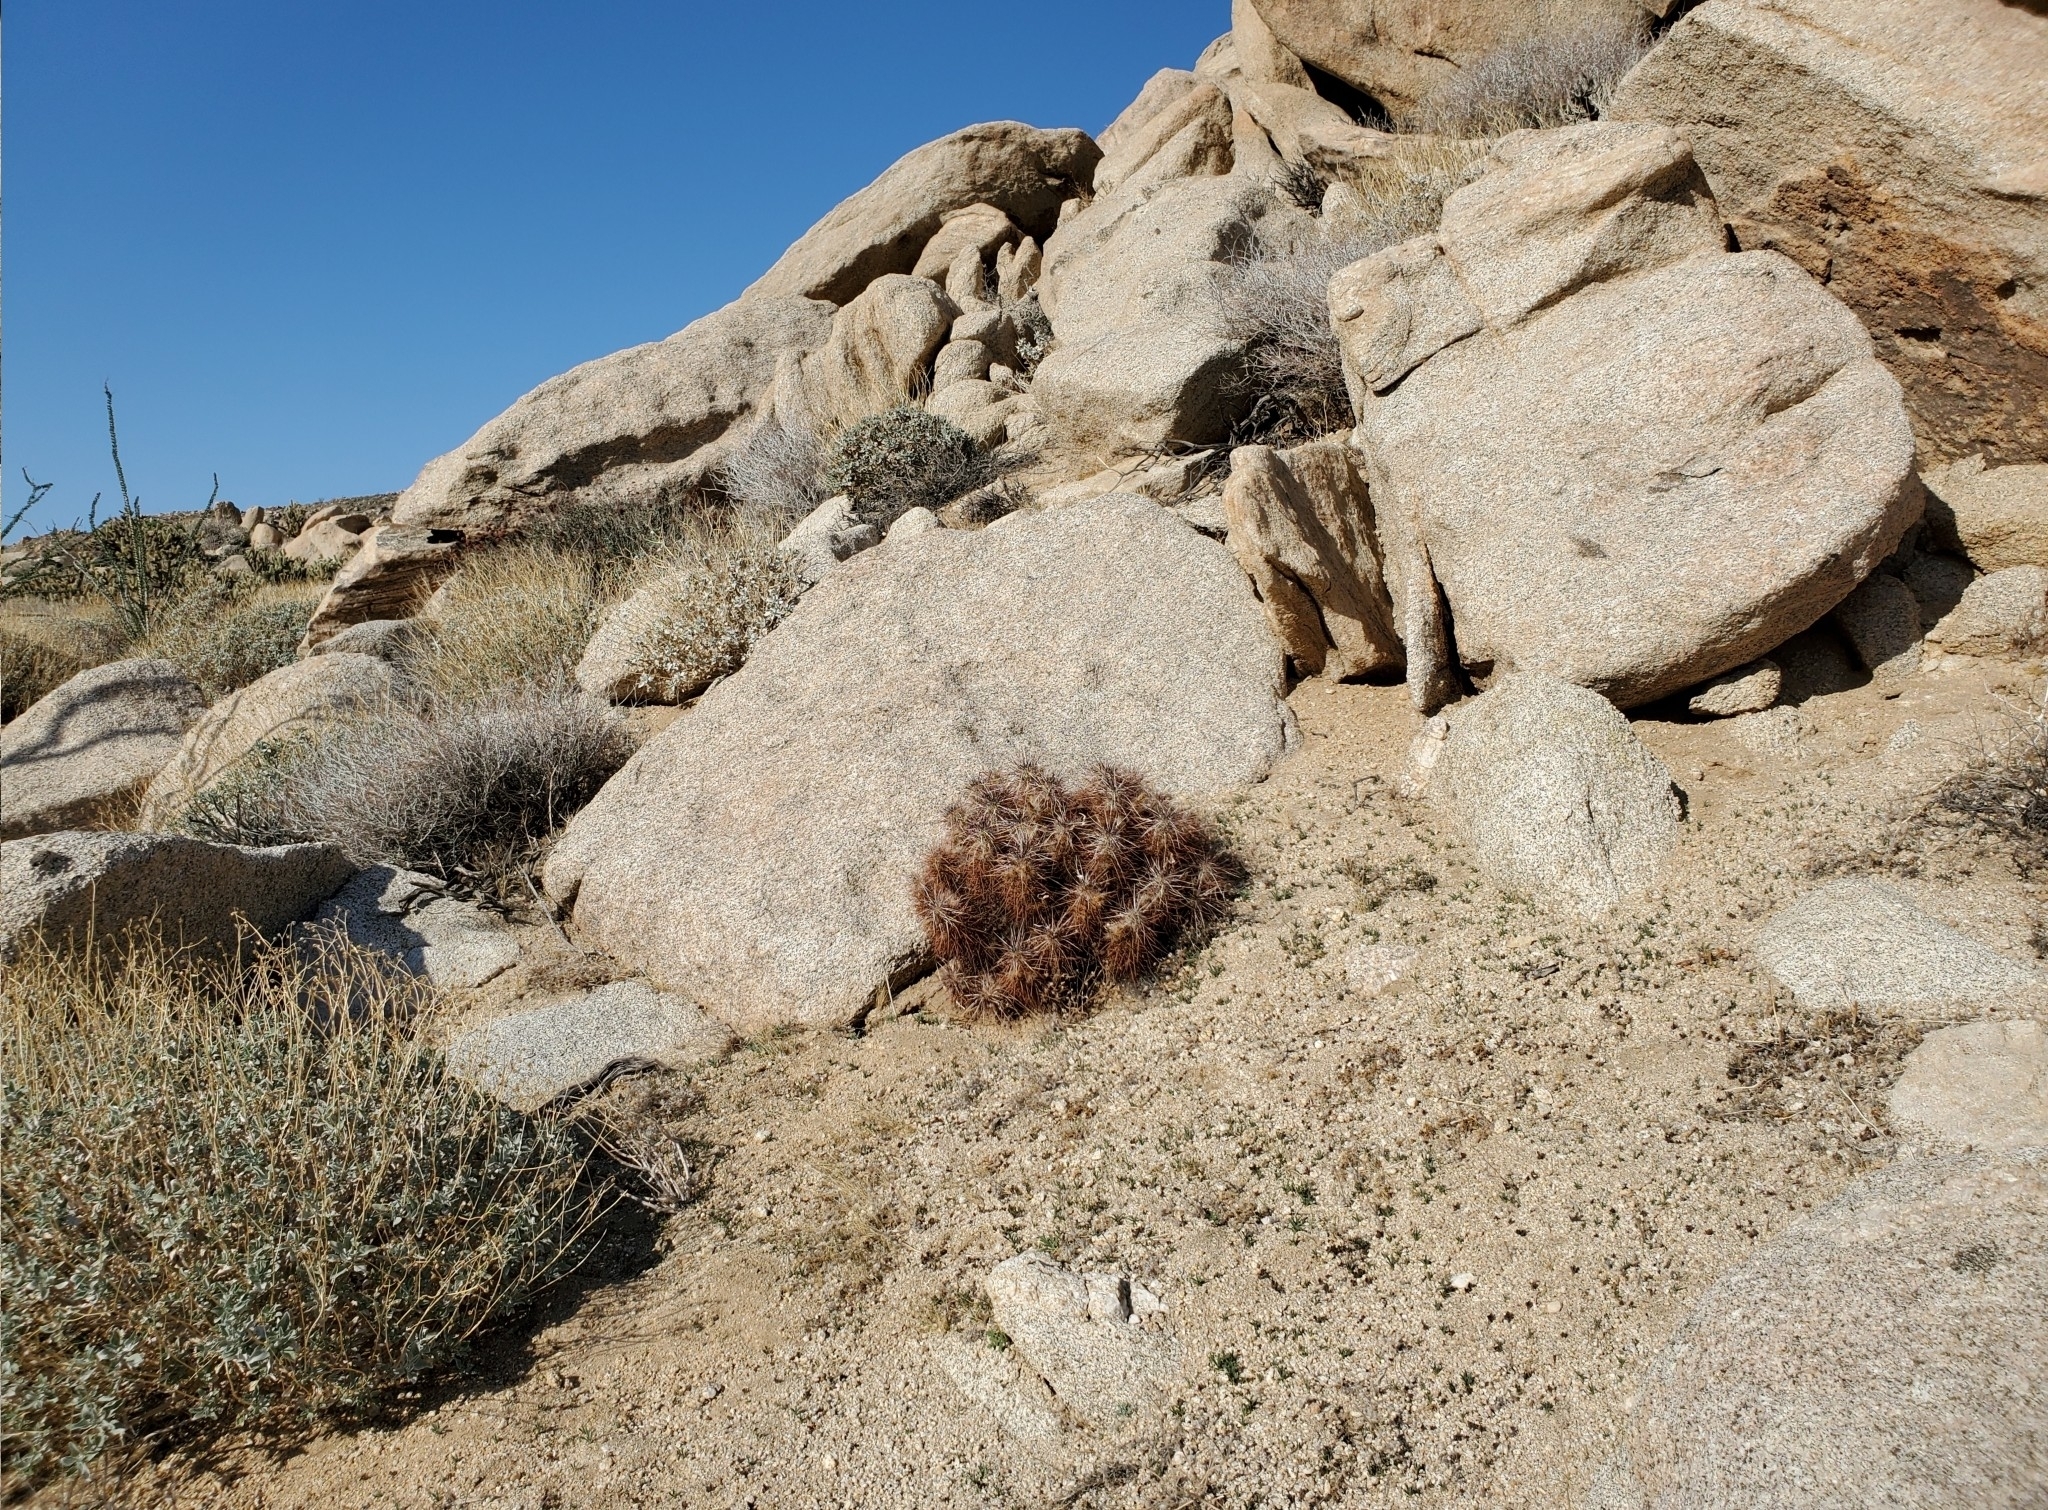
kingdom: Plantae
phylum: Tracheophyta
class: Magnoliopsida
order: Caryophyllales
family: Cactaceae
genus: Echinocereus
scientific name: Echinocereus engelmannii
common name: Engelmann's hedgehog cactus
